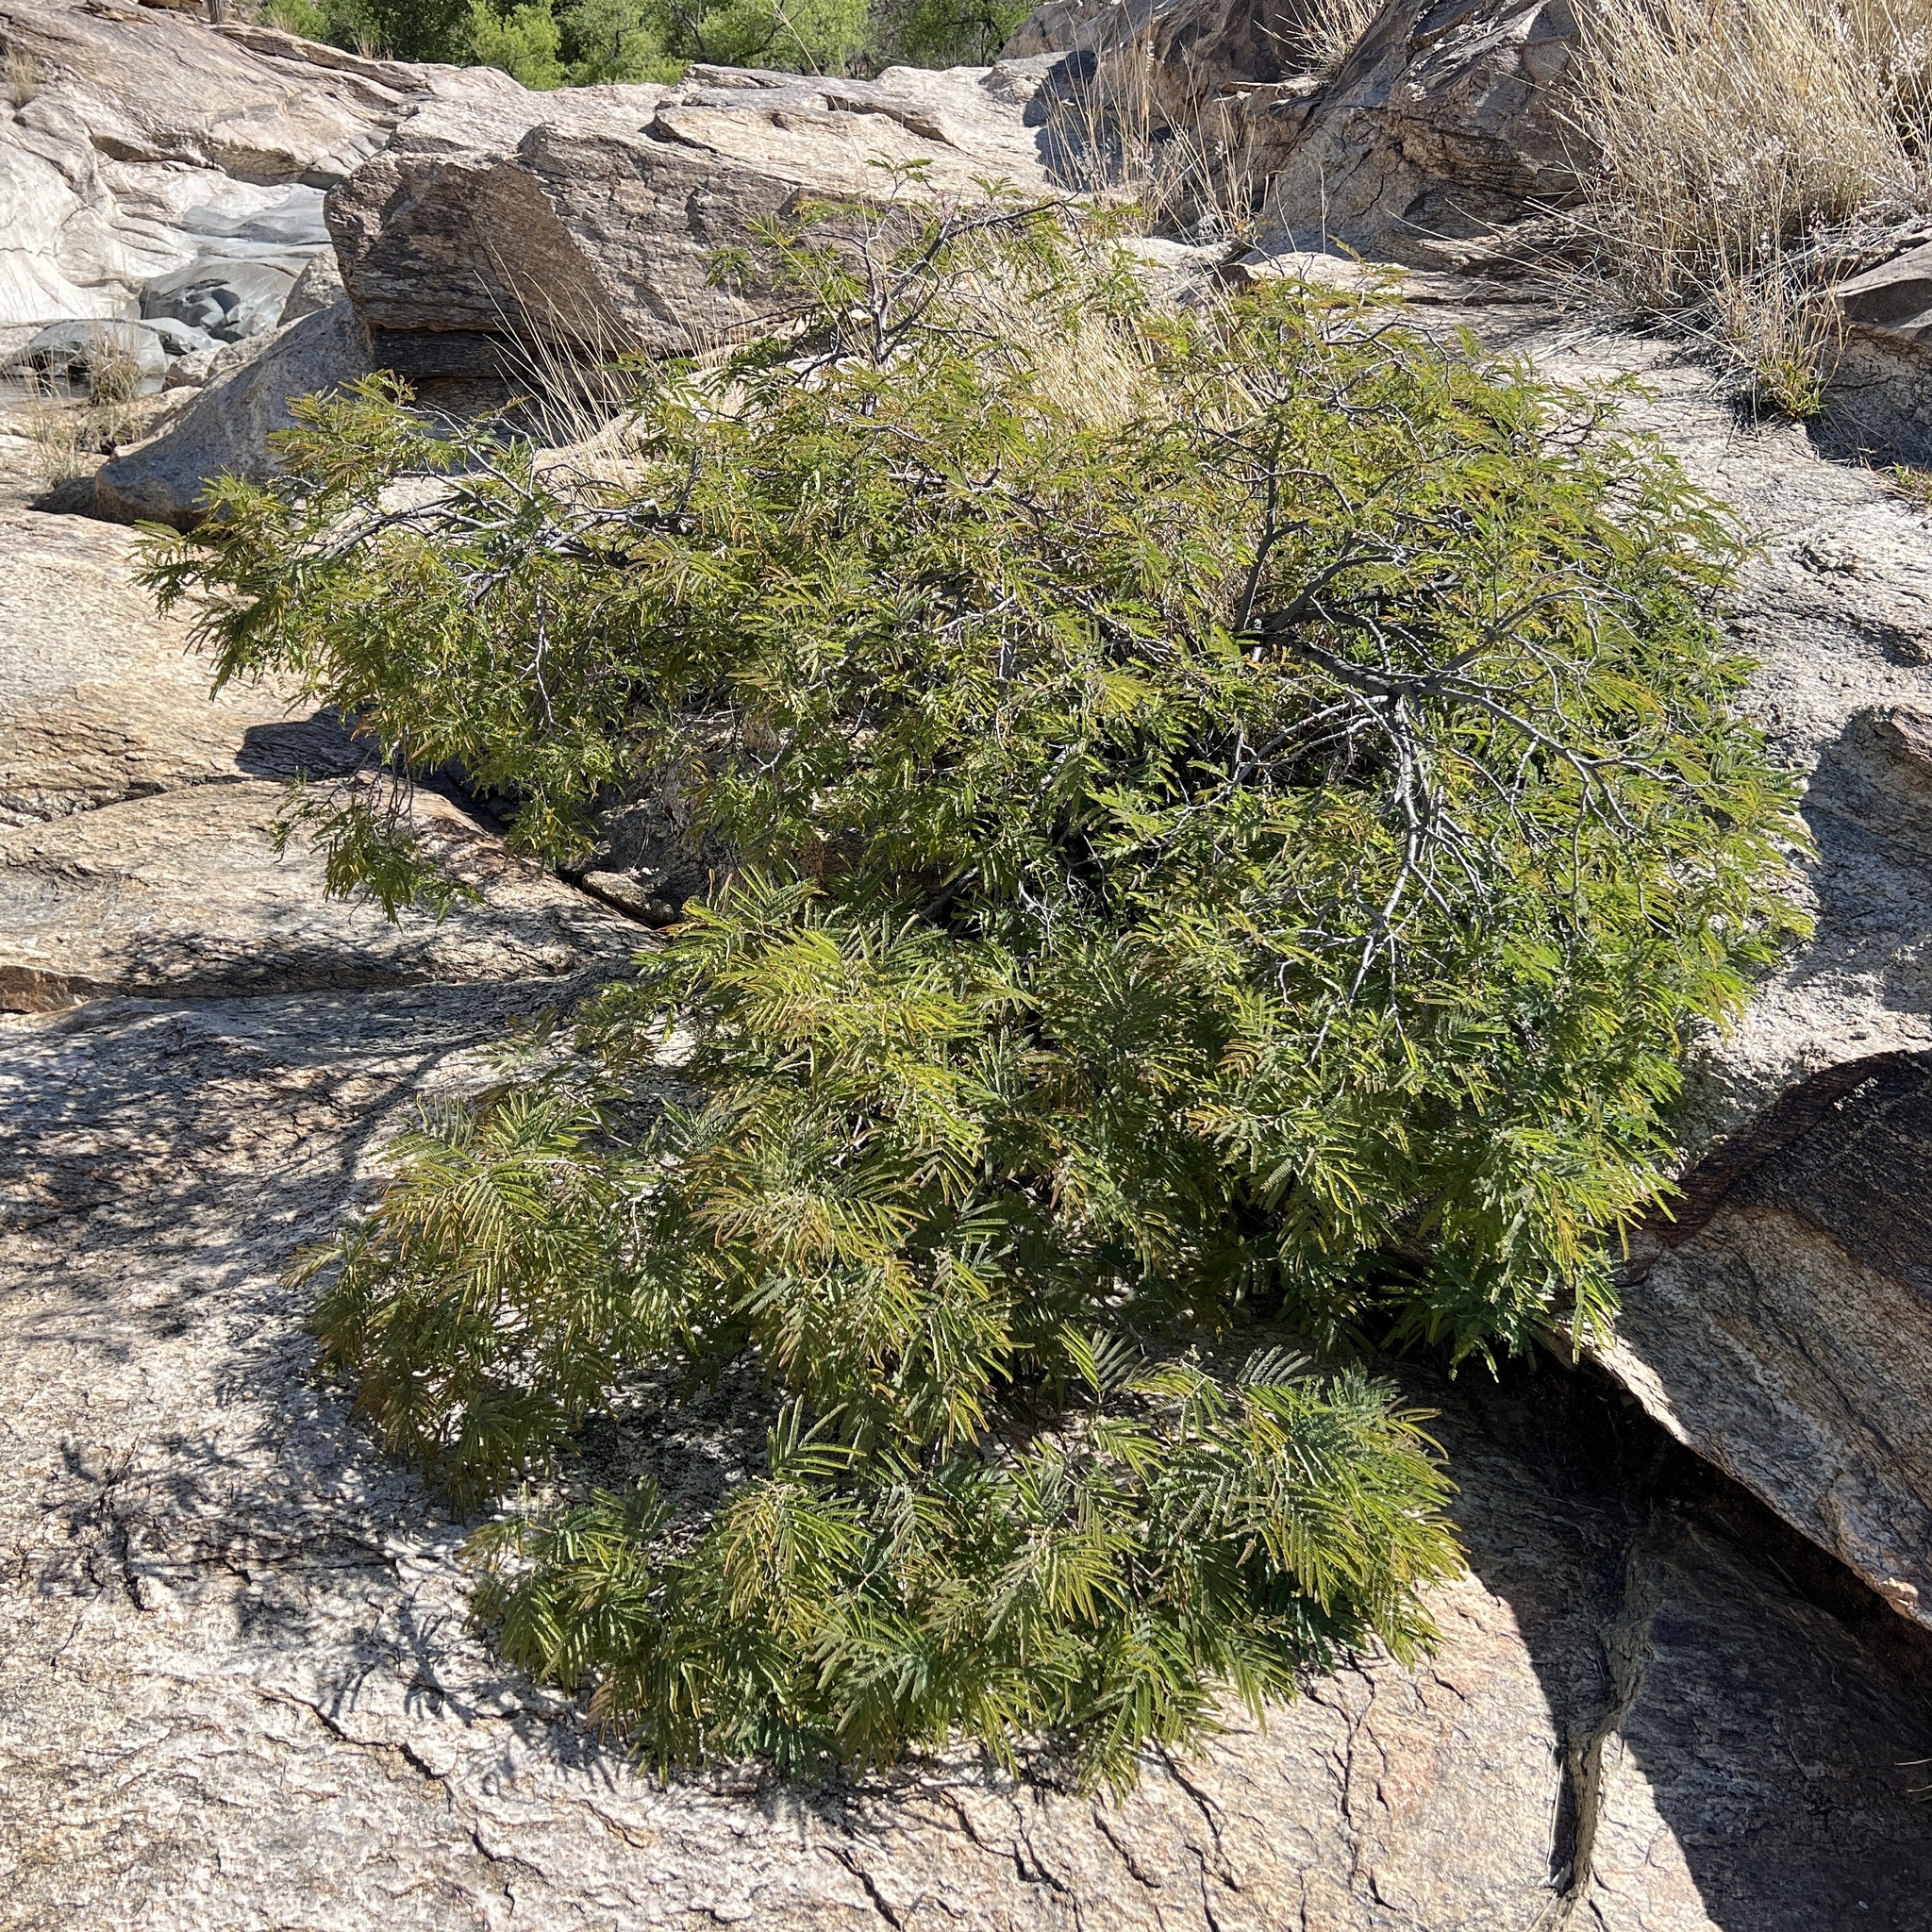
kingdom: Plantae
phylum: Tracheophyta
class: Magnoliopsida
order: Fabales
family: Fabaceae
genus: Lysiloma
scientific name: Lysiloma watsonii
